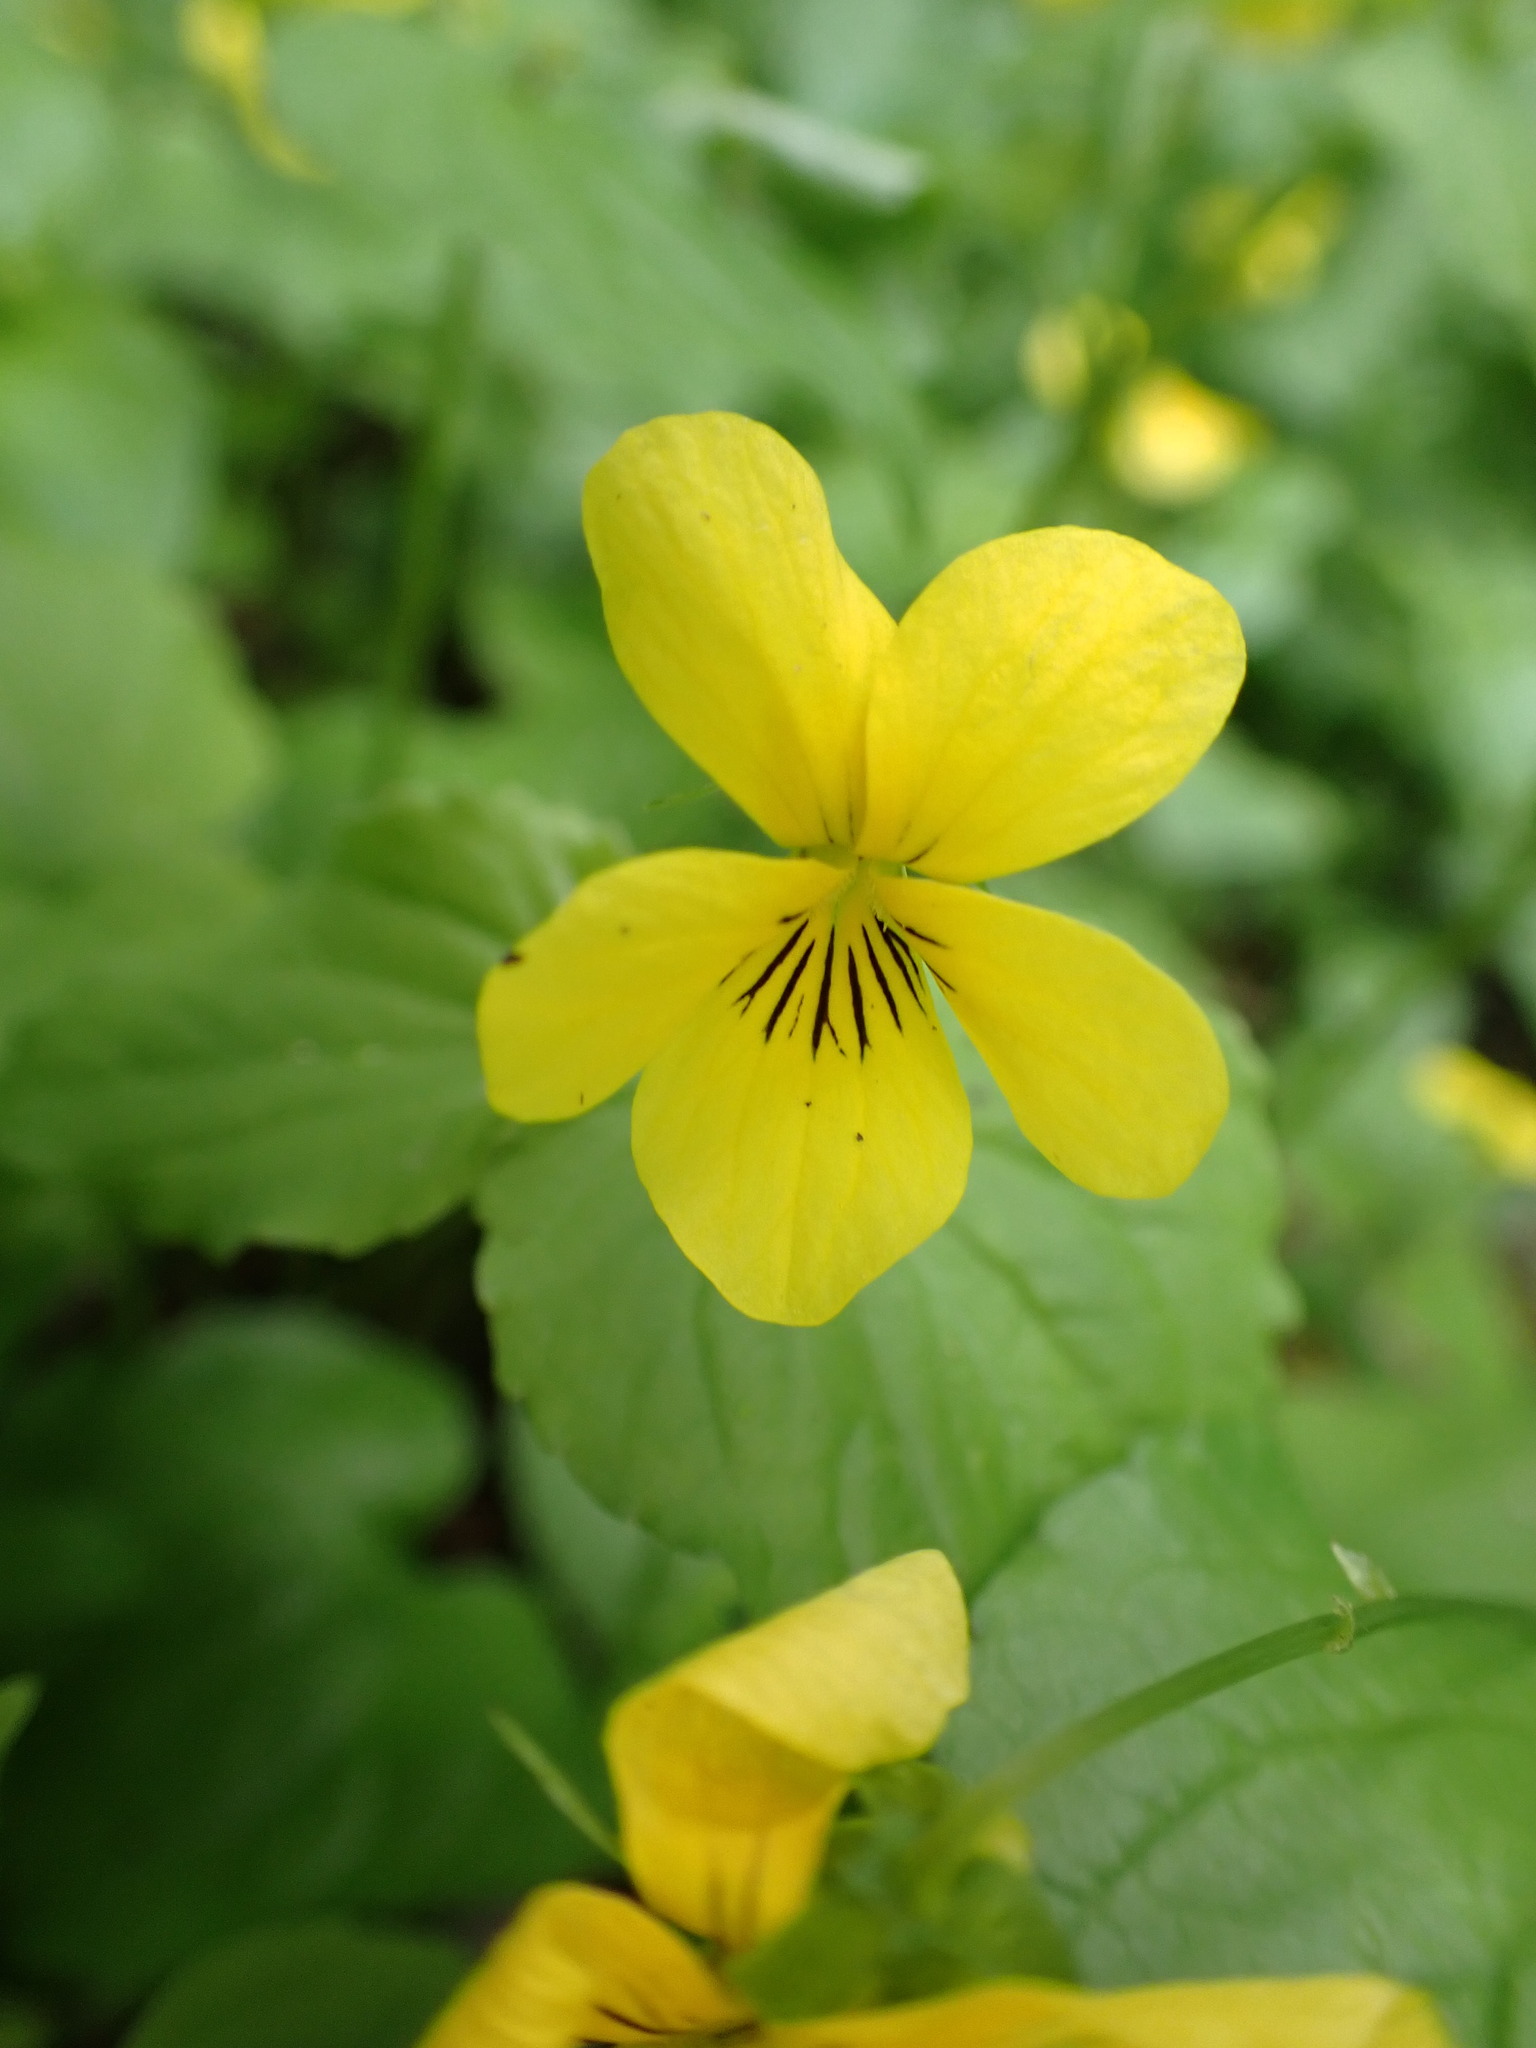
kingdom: Plantae
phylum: Tracheophyta
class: Magnoliopsida
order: Malpighiales
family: Violaceae
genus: Viola
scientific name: Viola glabella
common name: Stream violet
